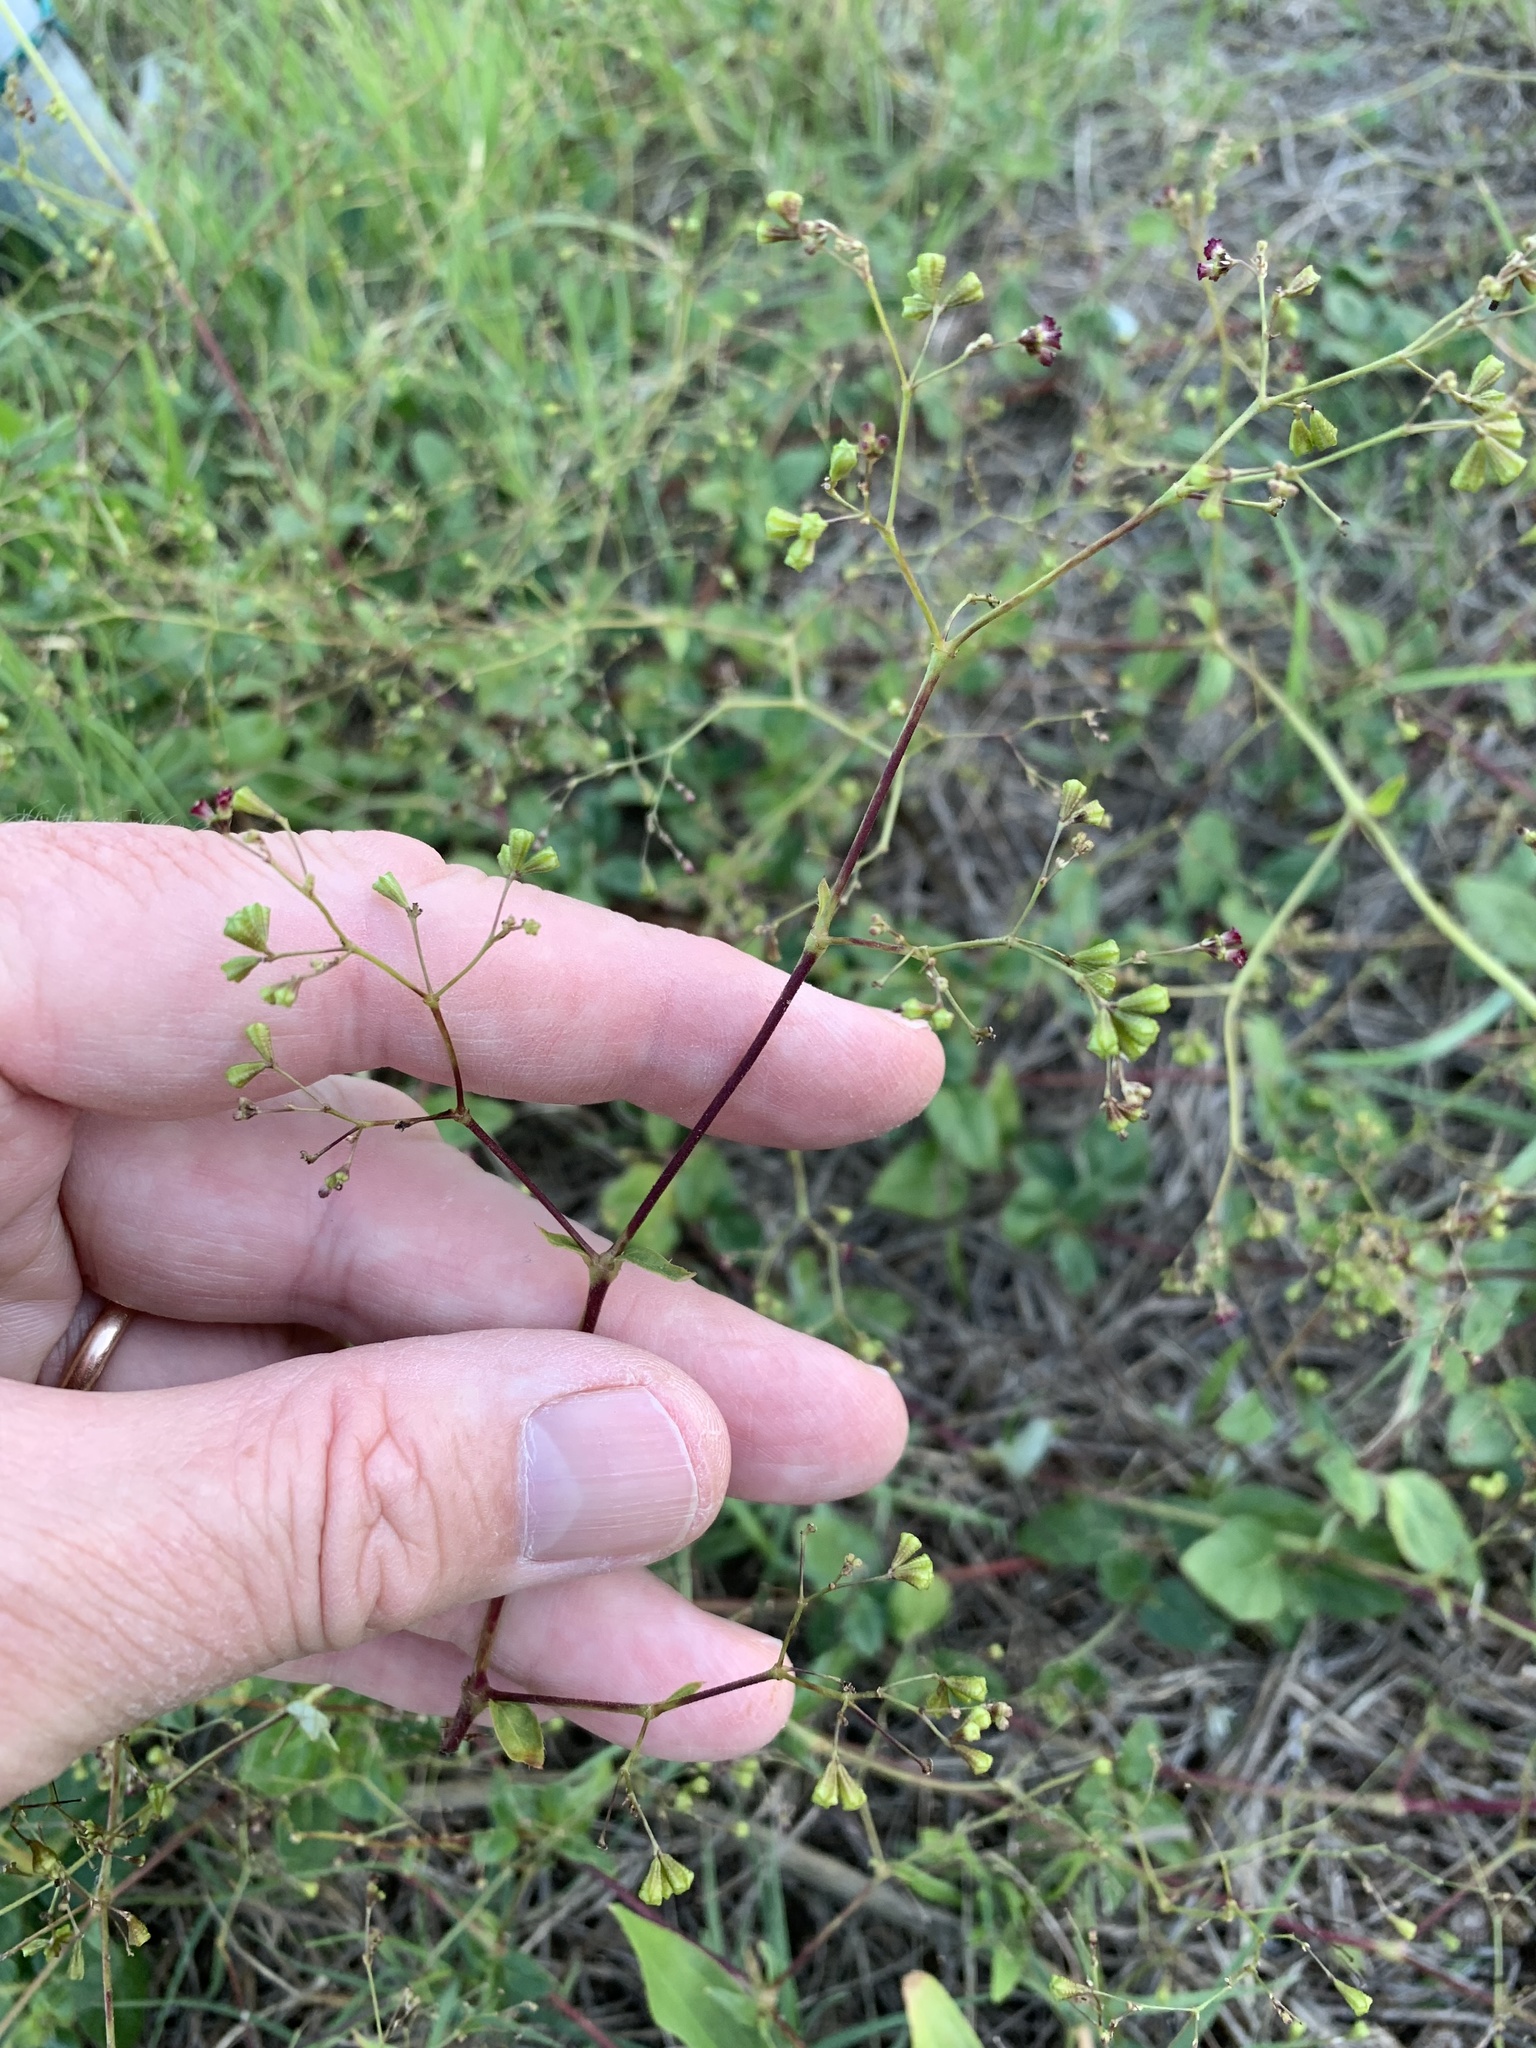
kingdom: Plantae
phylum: Tracheophyta
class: Magnoliopsida
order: Caryophyllales
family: Nyctaginaceae
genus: Boerhavia
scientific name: Boerhavia erecta
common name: Erect spiderling
